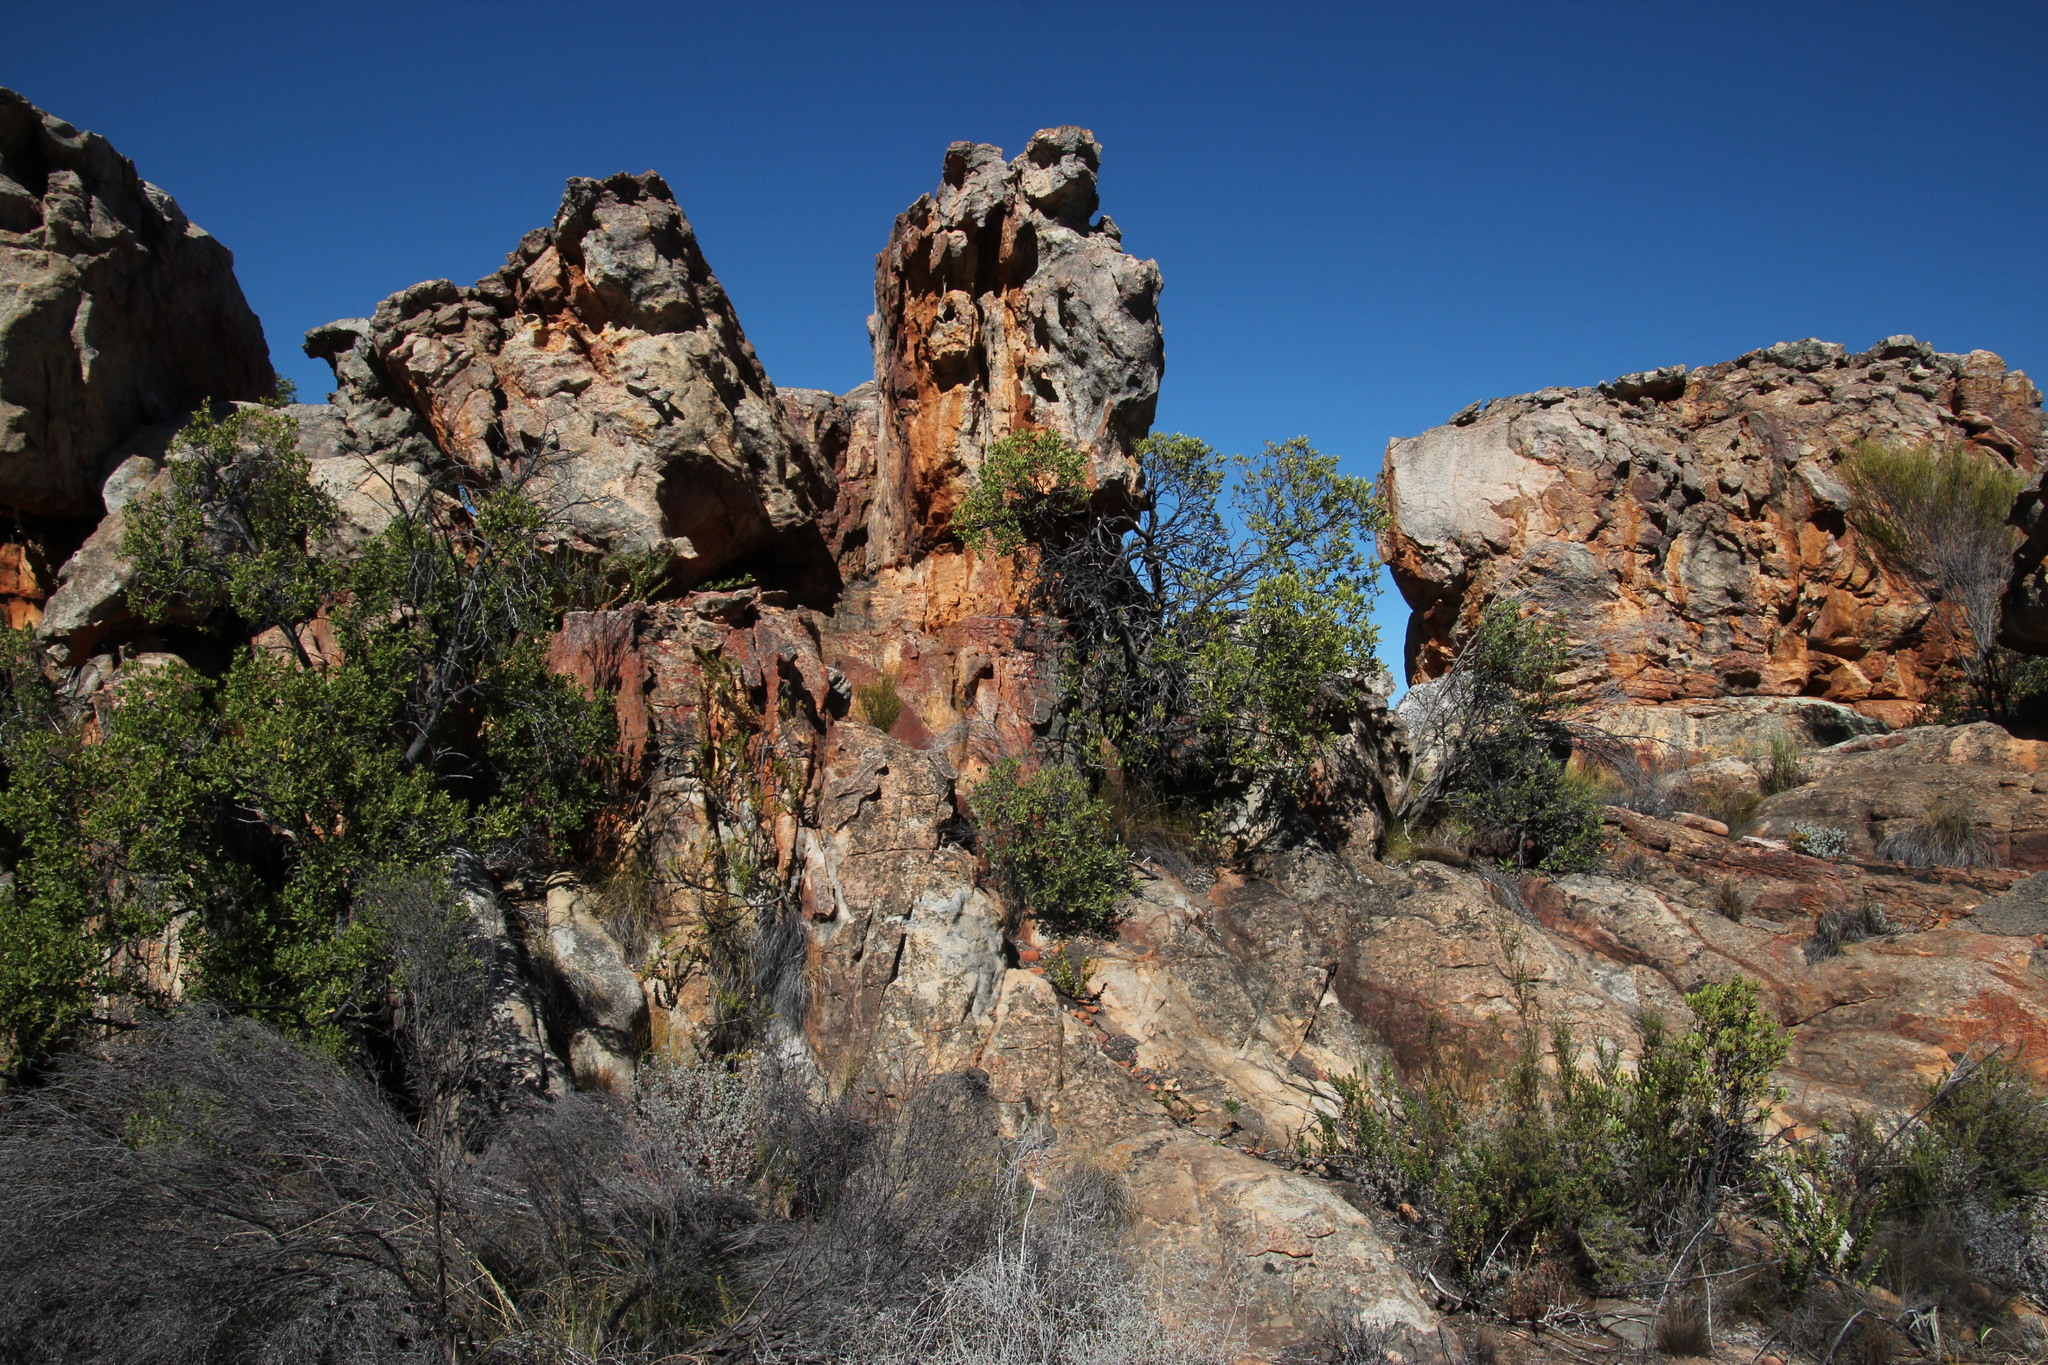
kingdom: Plantae
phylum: Tracheophyta
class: Magnoliopsida
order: Celastrales
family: Celastraceae
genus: Gymnosporia
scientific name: Gymnosporia laurina
